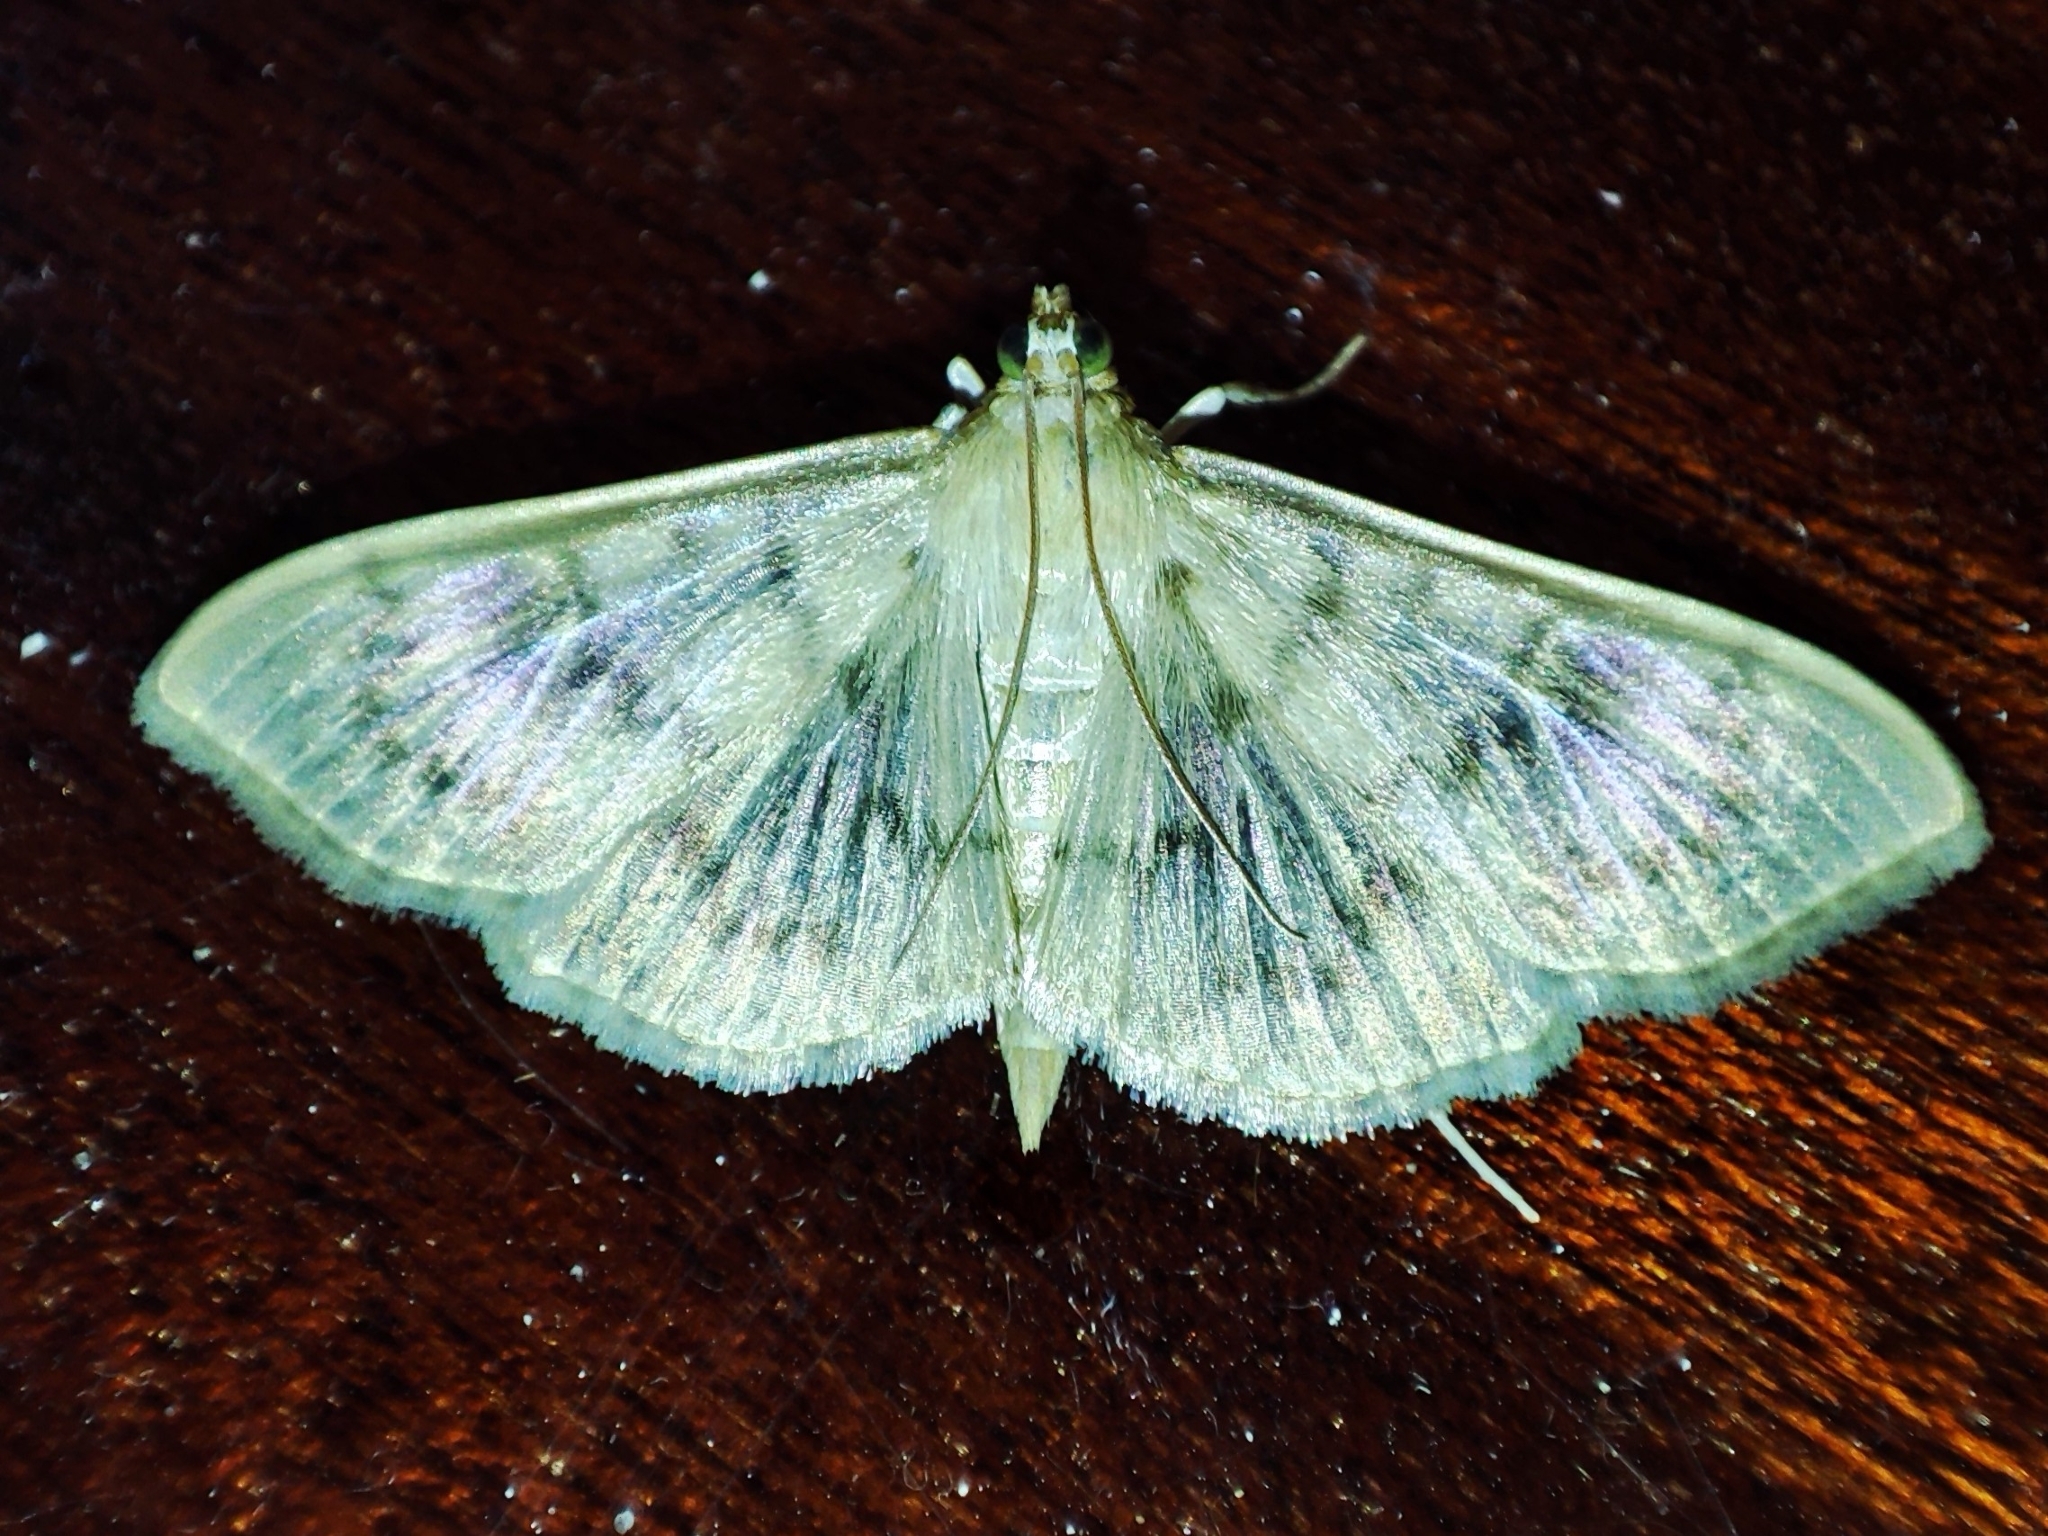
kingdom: Animalia
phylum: Arthropoda
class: Insecta
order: Lepidoptera
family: Crambidae
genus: Patania
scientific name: Patania ruralis
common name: Mother of pearl
